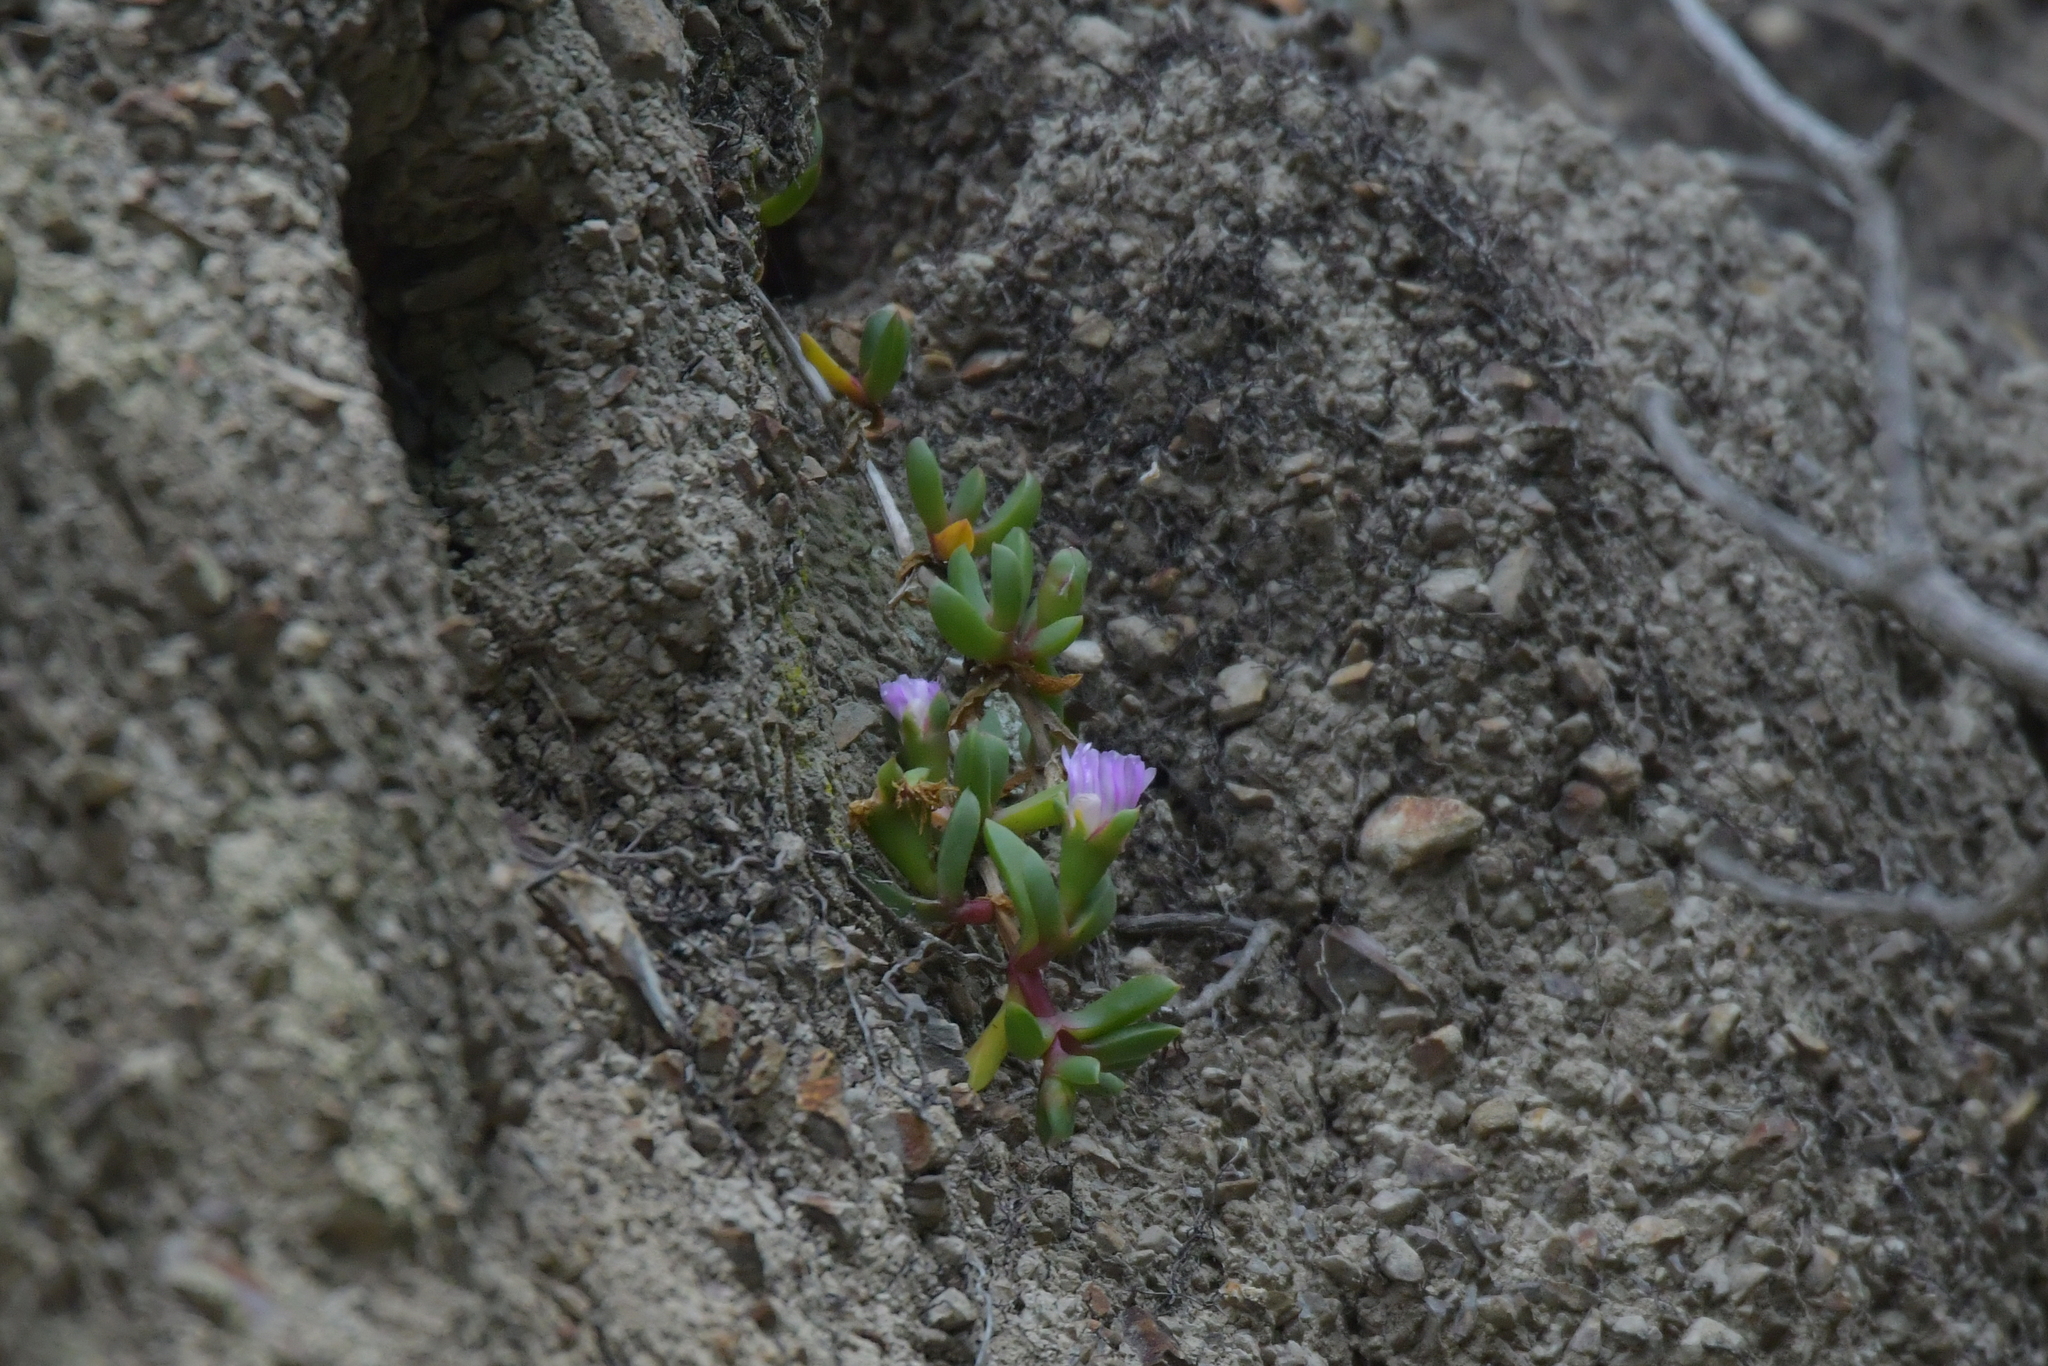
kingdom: Plantae
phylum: Tracheophyta
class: Magnoliopsida
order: Caryophyllales
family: Aizoaceae
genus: Disphyma
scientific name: Disphyma australe
